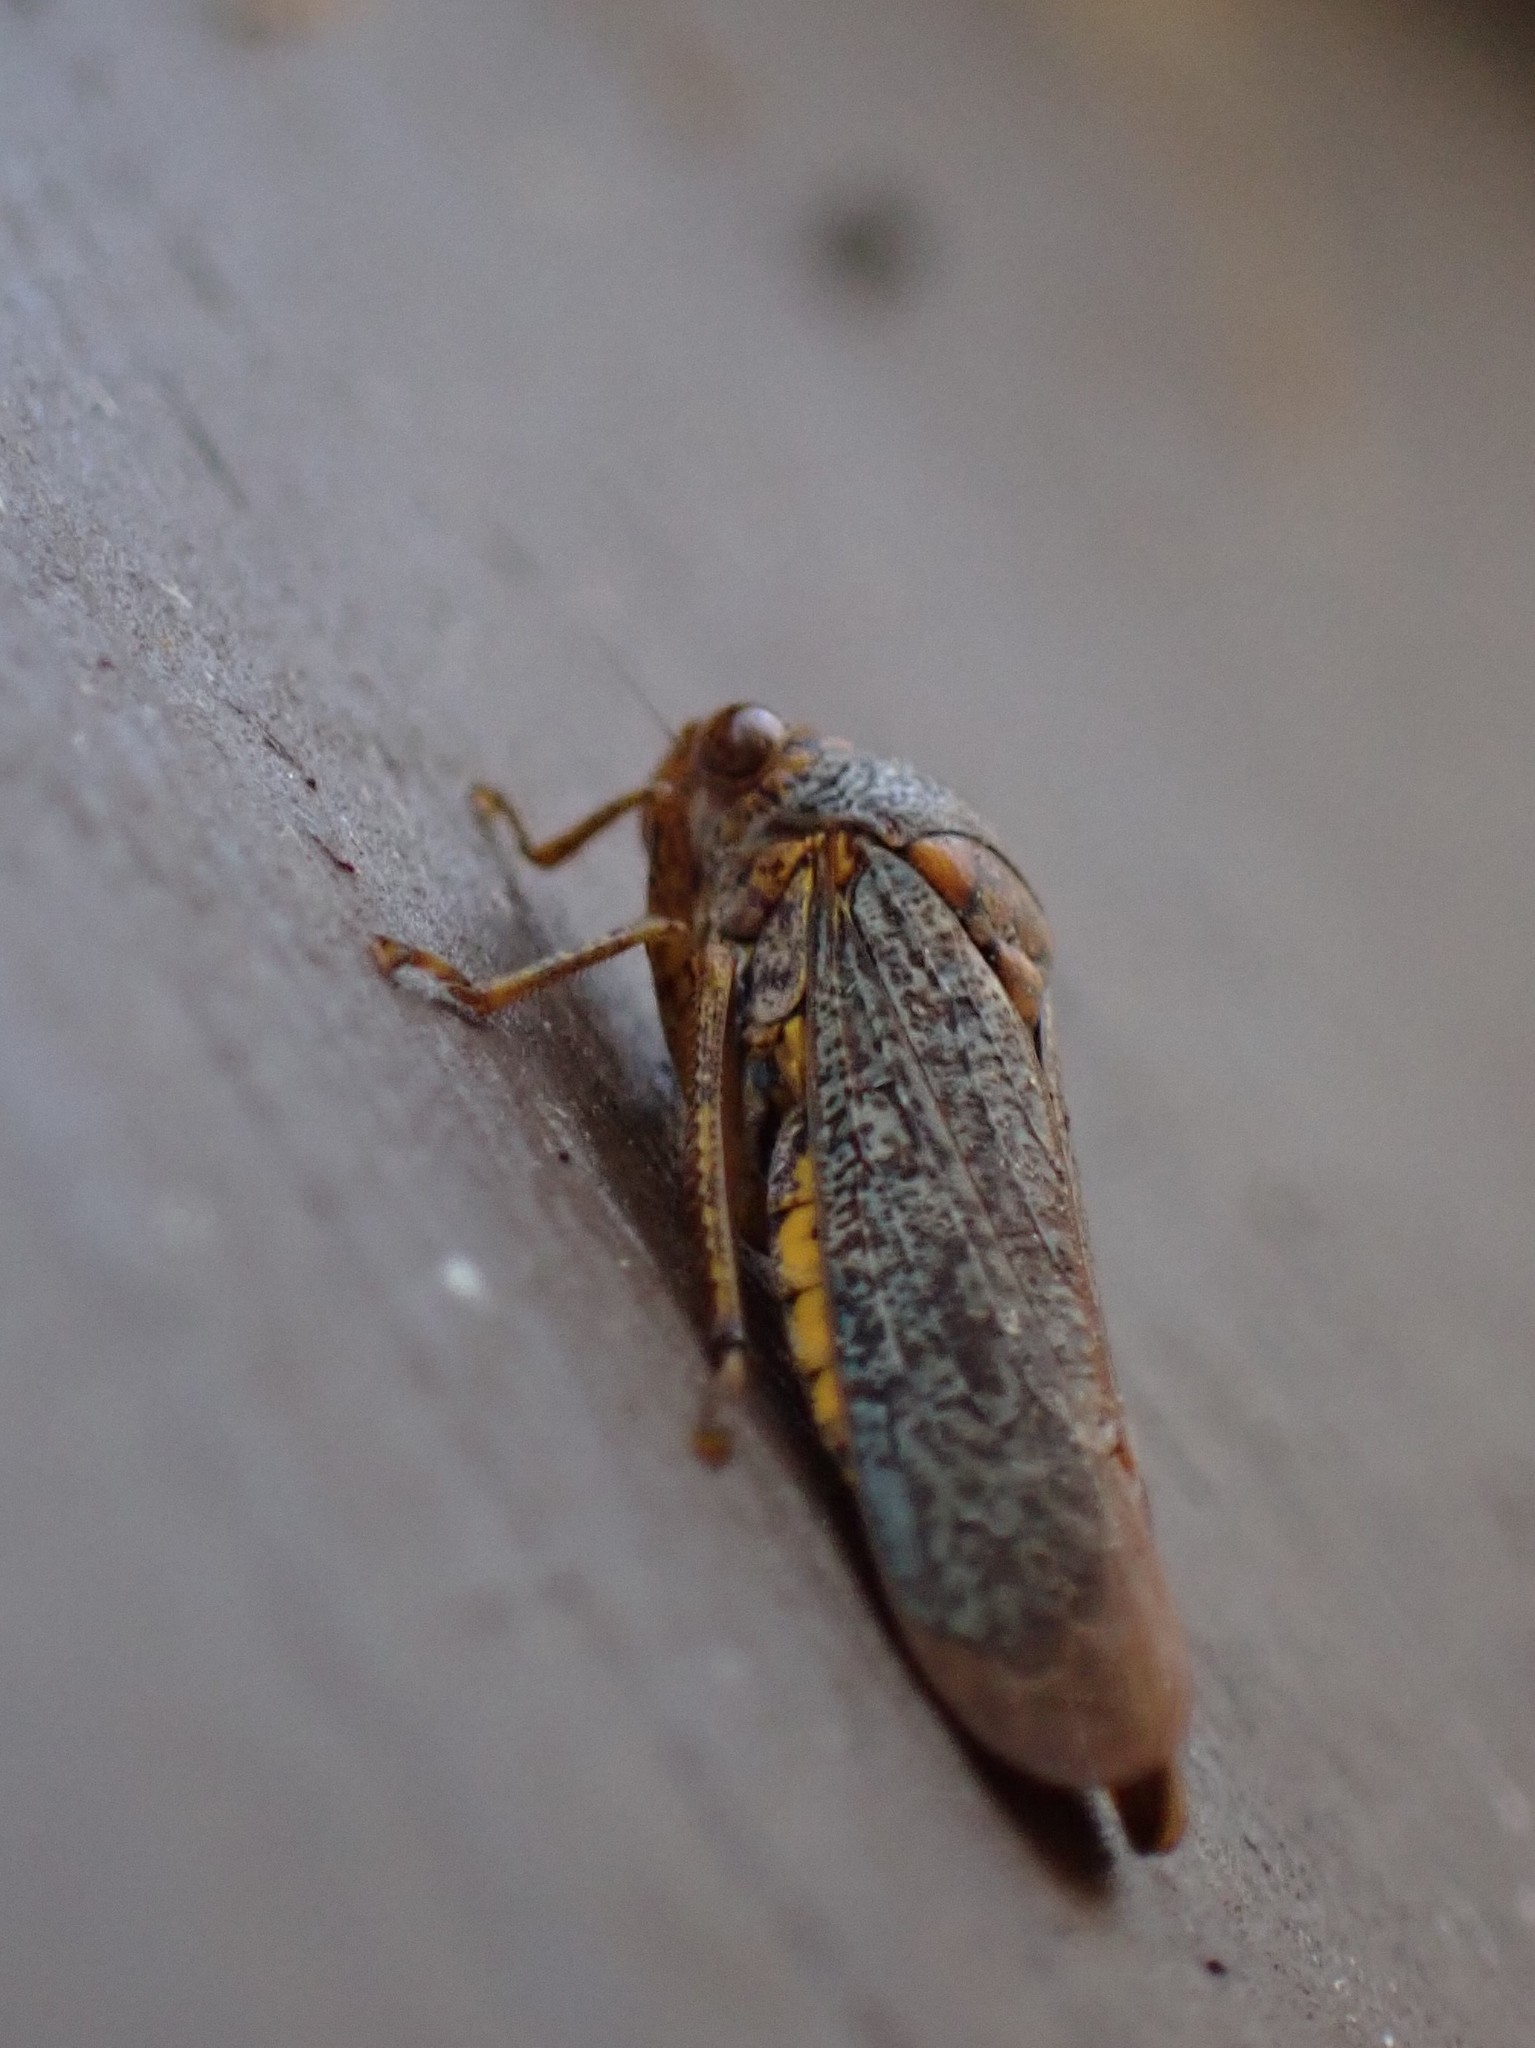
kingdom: Animalia
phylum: Arthropoda
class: Insecta
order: Hemiptera
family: Cicadellidae
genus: Oncometopia
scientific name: Oncometopia orbona
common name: Broad-headed sharpshooter
